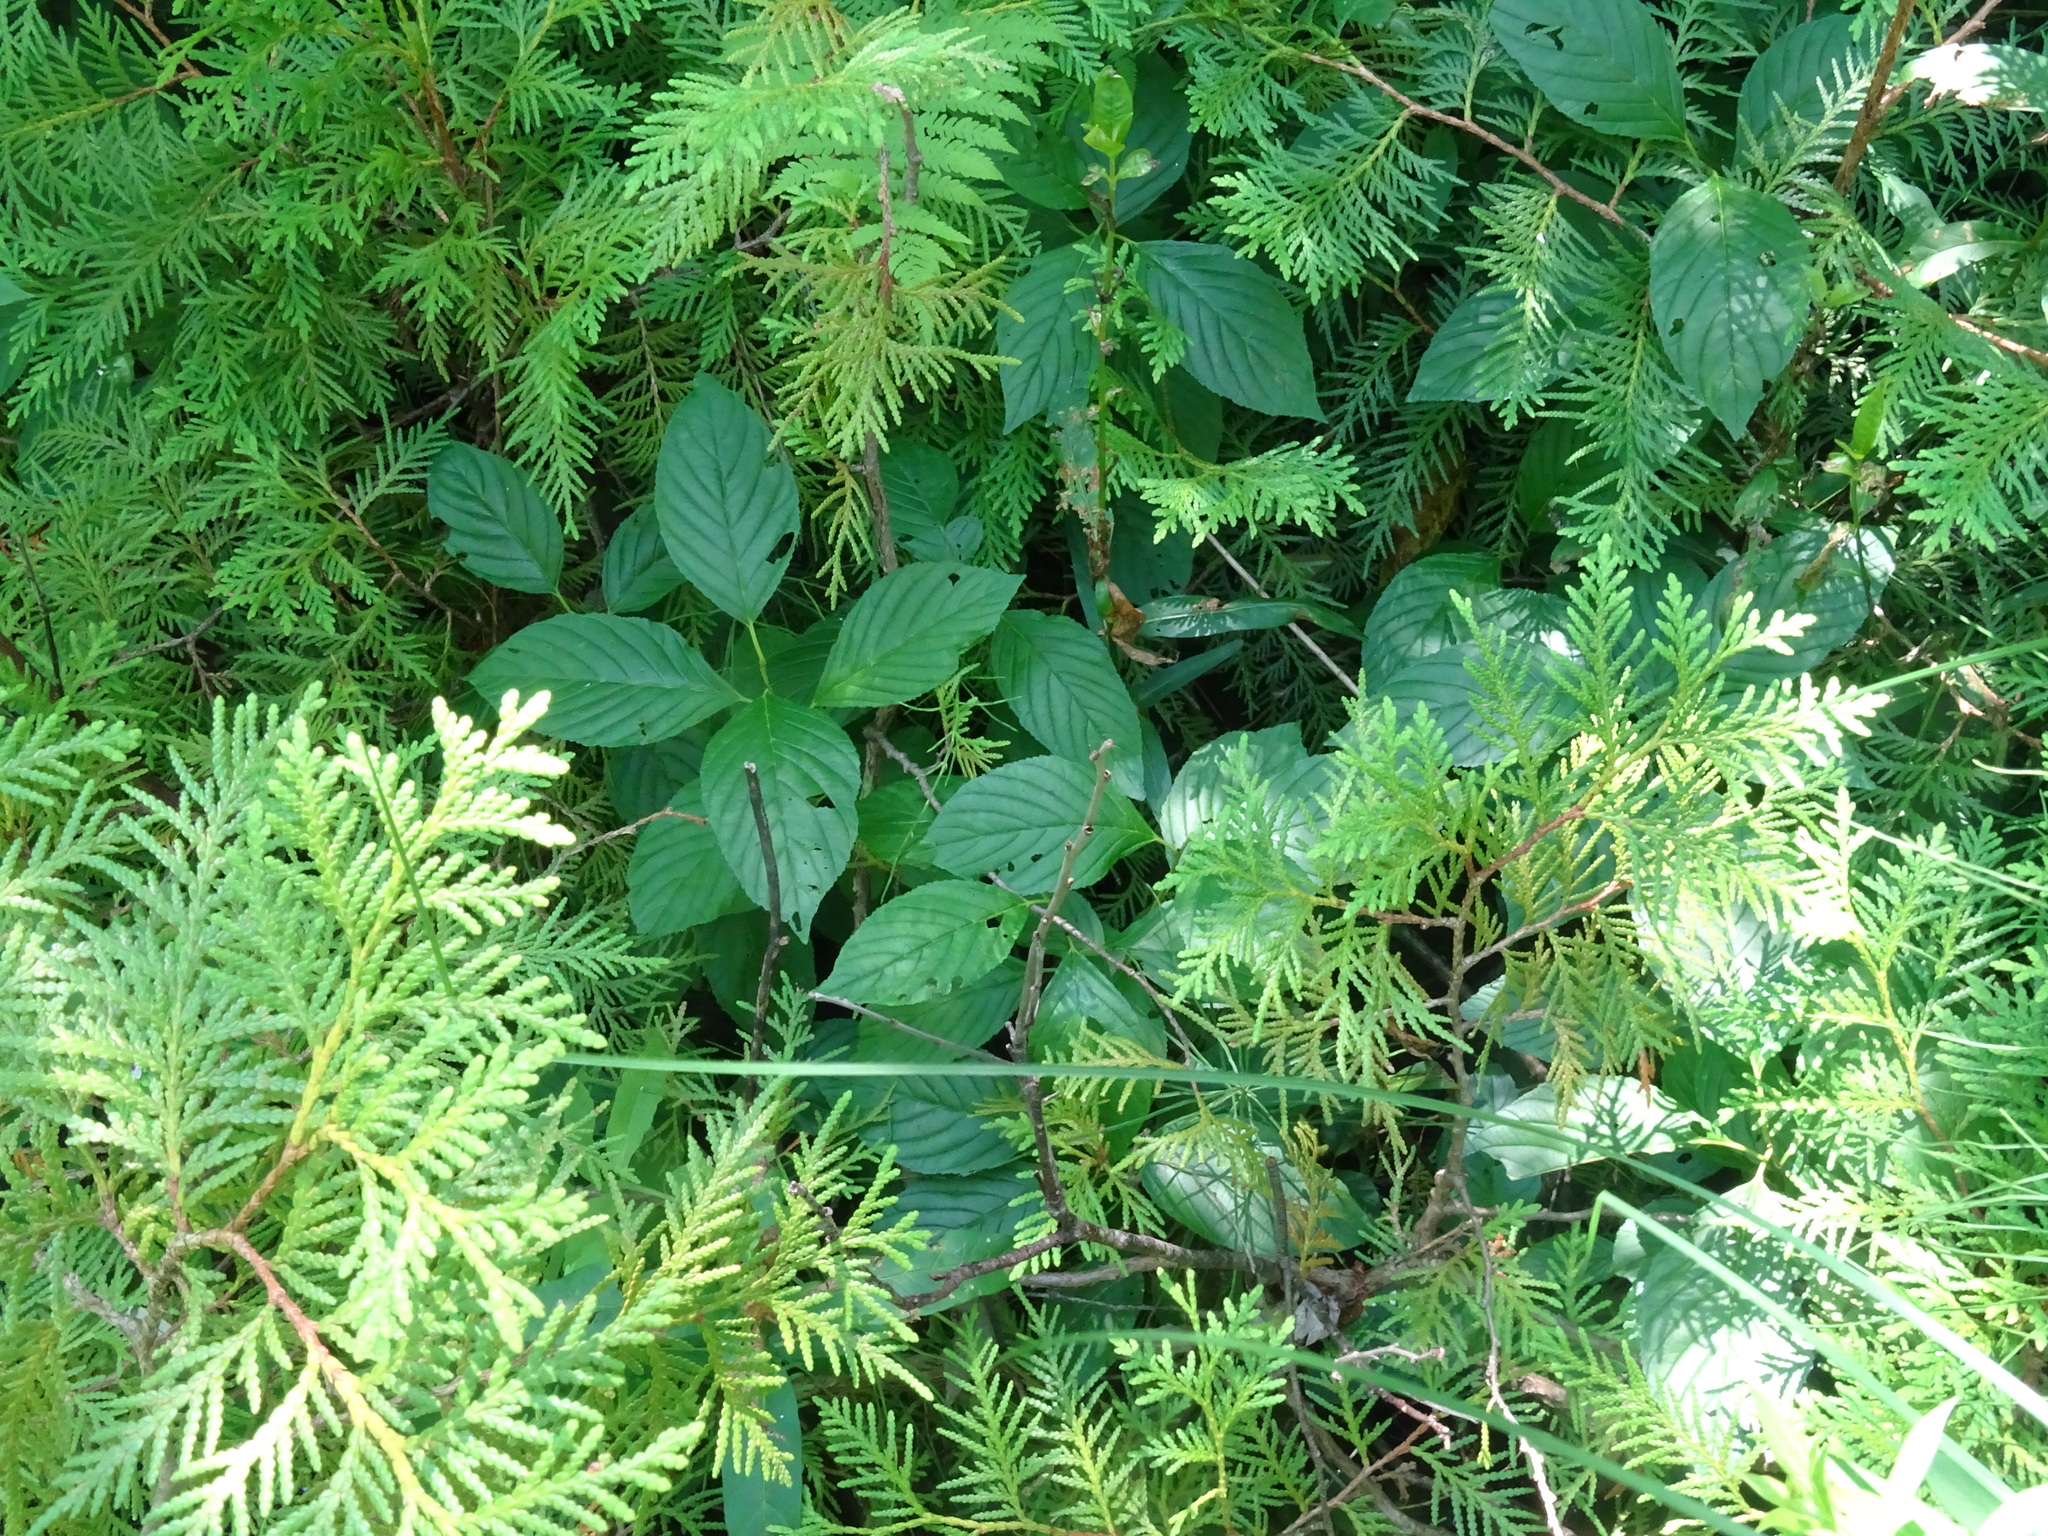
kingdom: Plantae
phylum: Tracheophyta
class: Magnoliopsida
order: Rosales
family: Rhamnaceae
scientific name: Rhamnaceae
